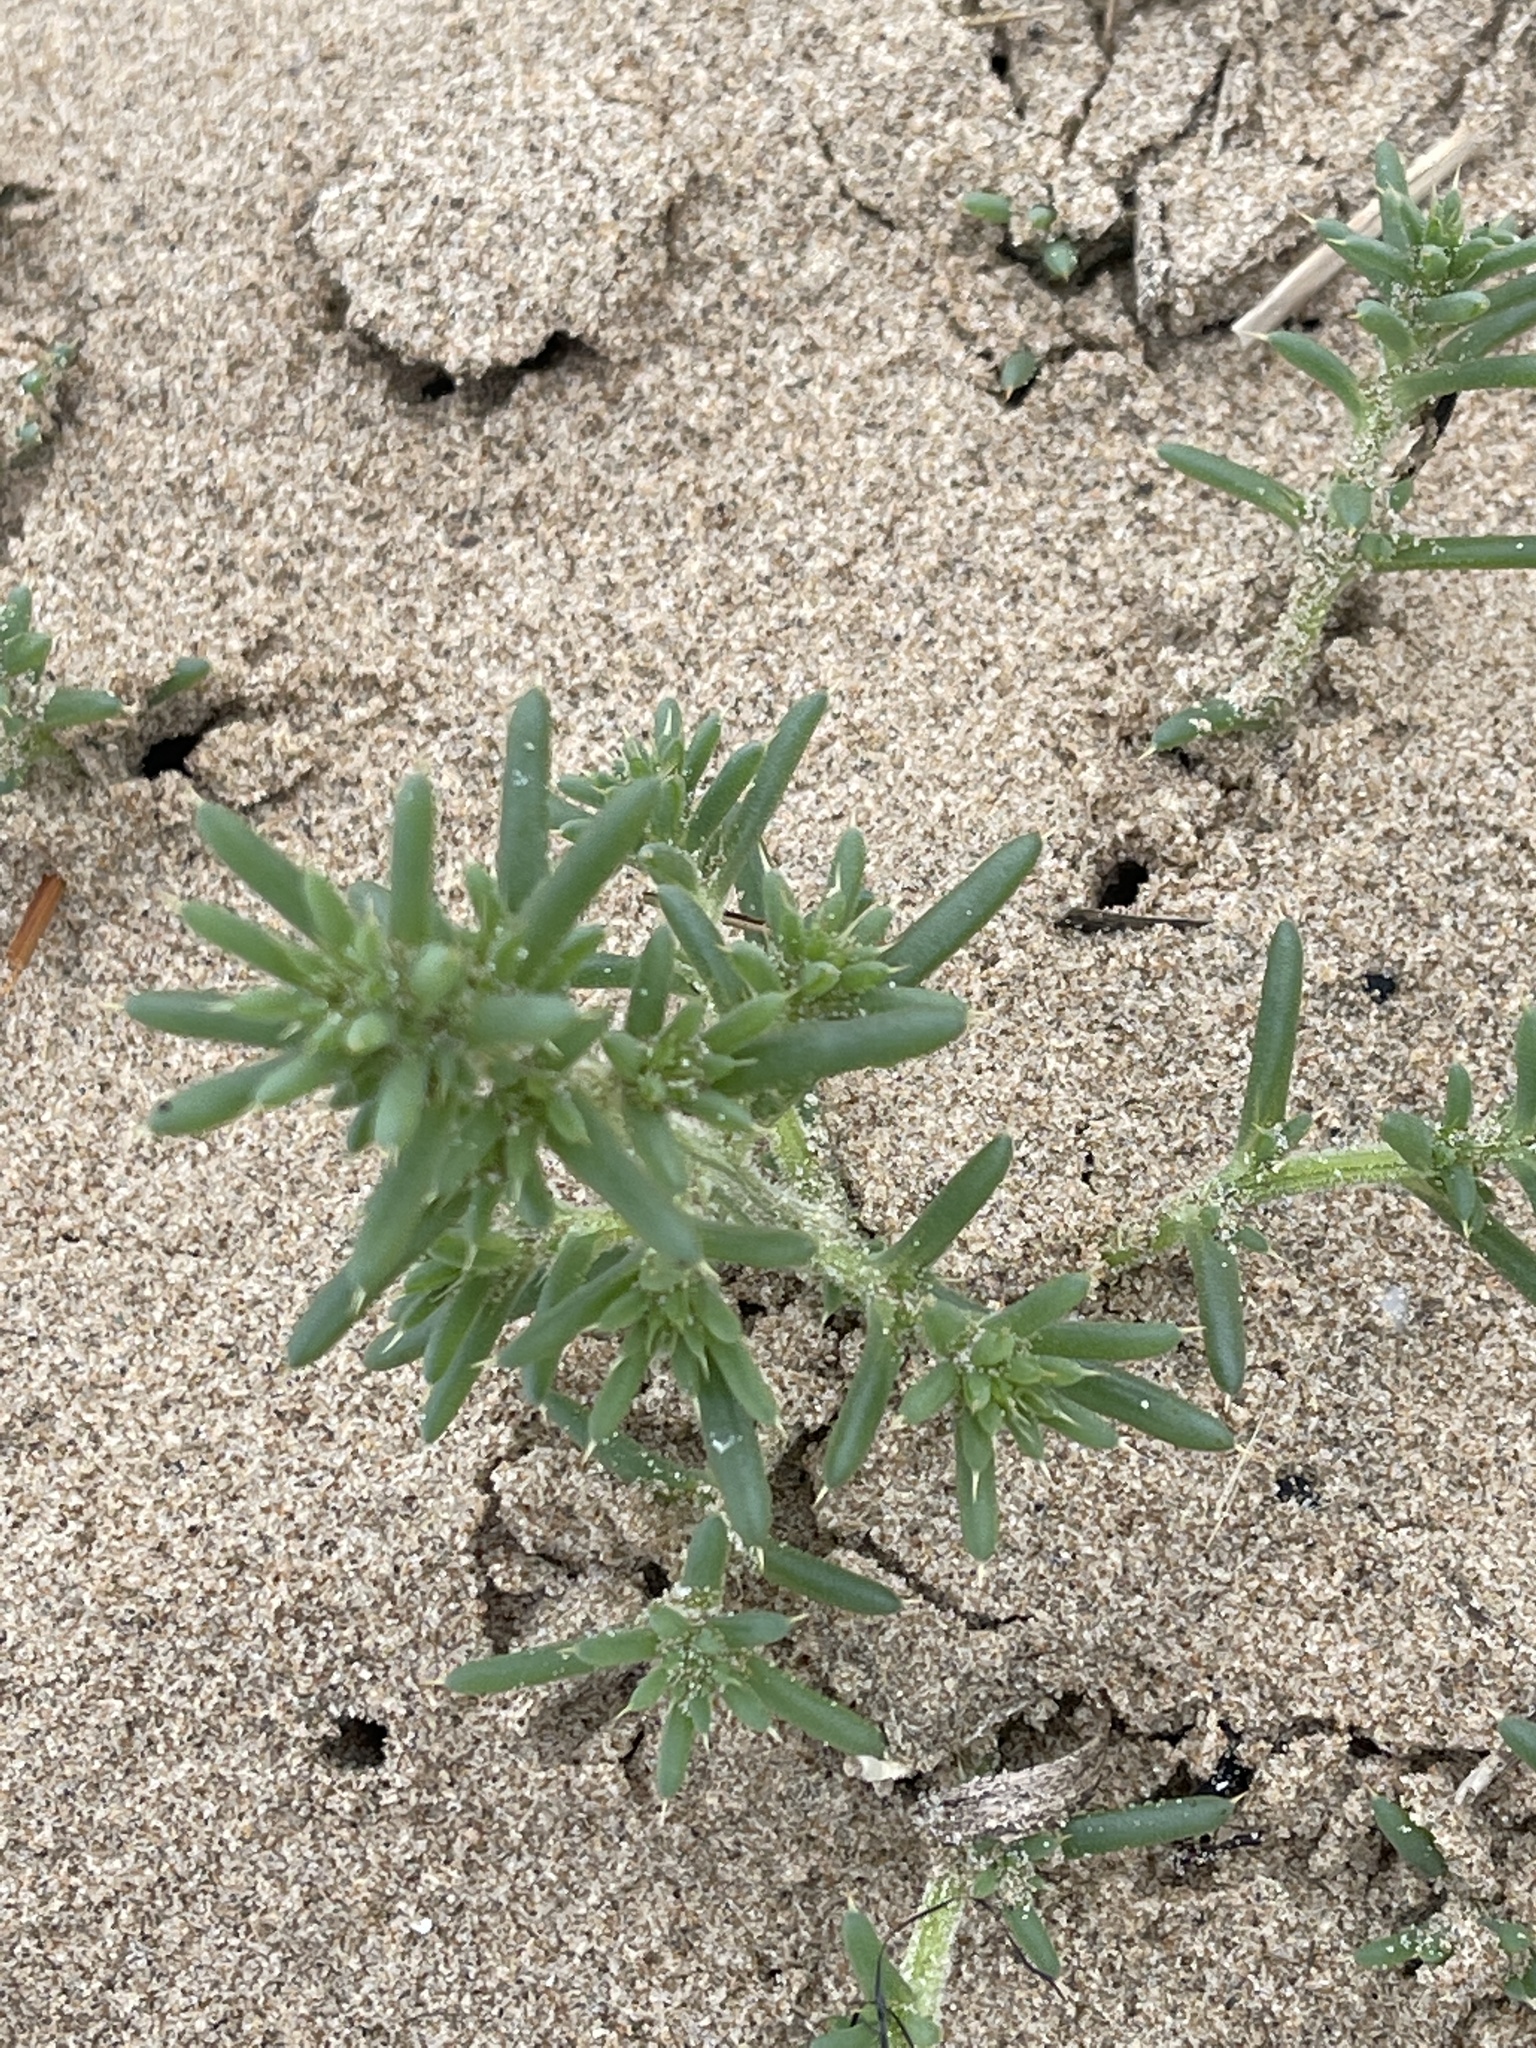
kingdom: Plantae
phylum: Tracheophyta
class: Magnoliopsida
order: Caryophyllales
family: Amaranthaceae
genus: Salsola
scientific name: Salsola kali
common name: Saltwort
